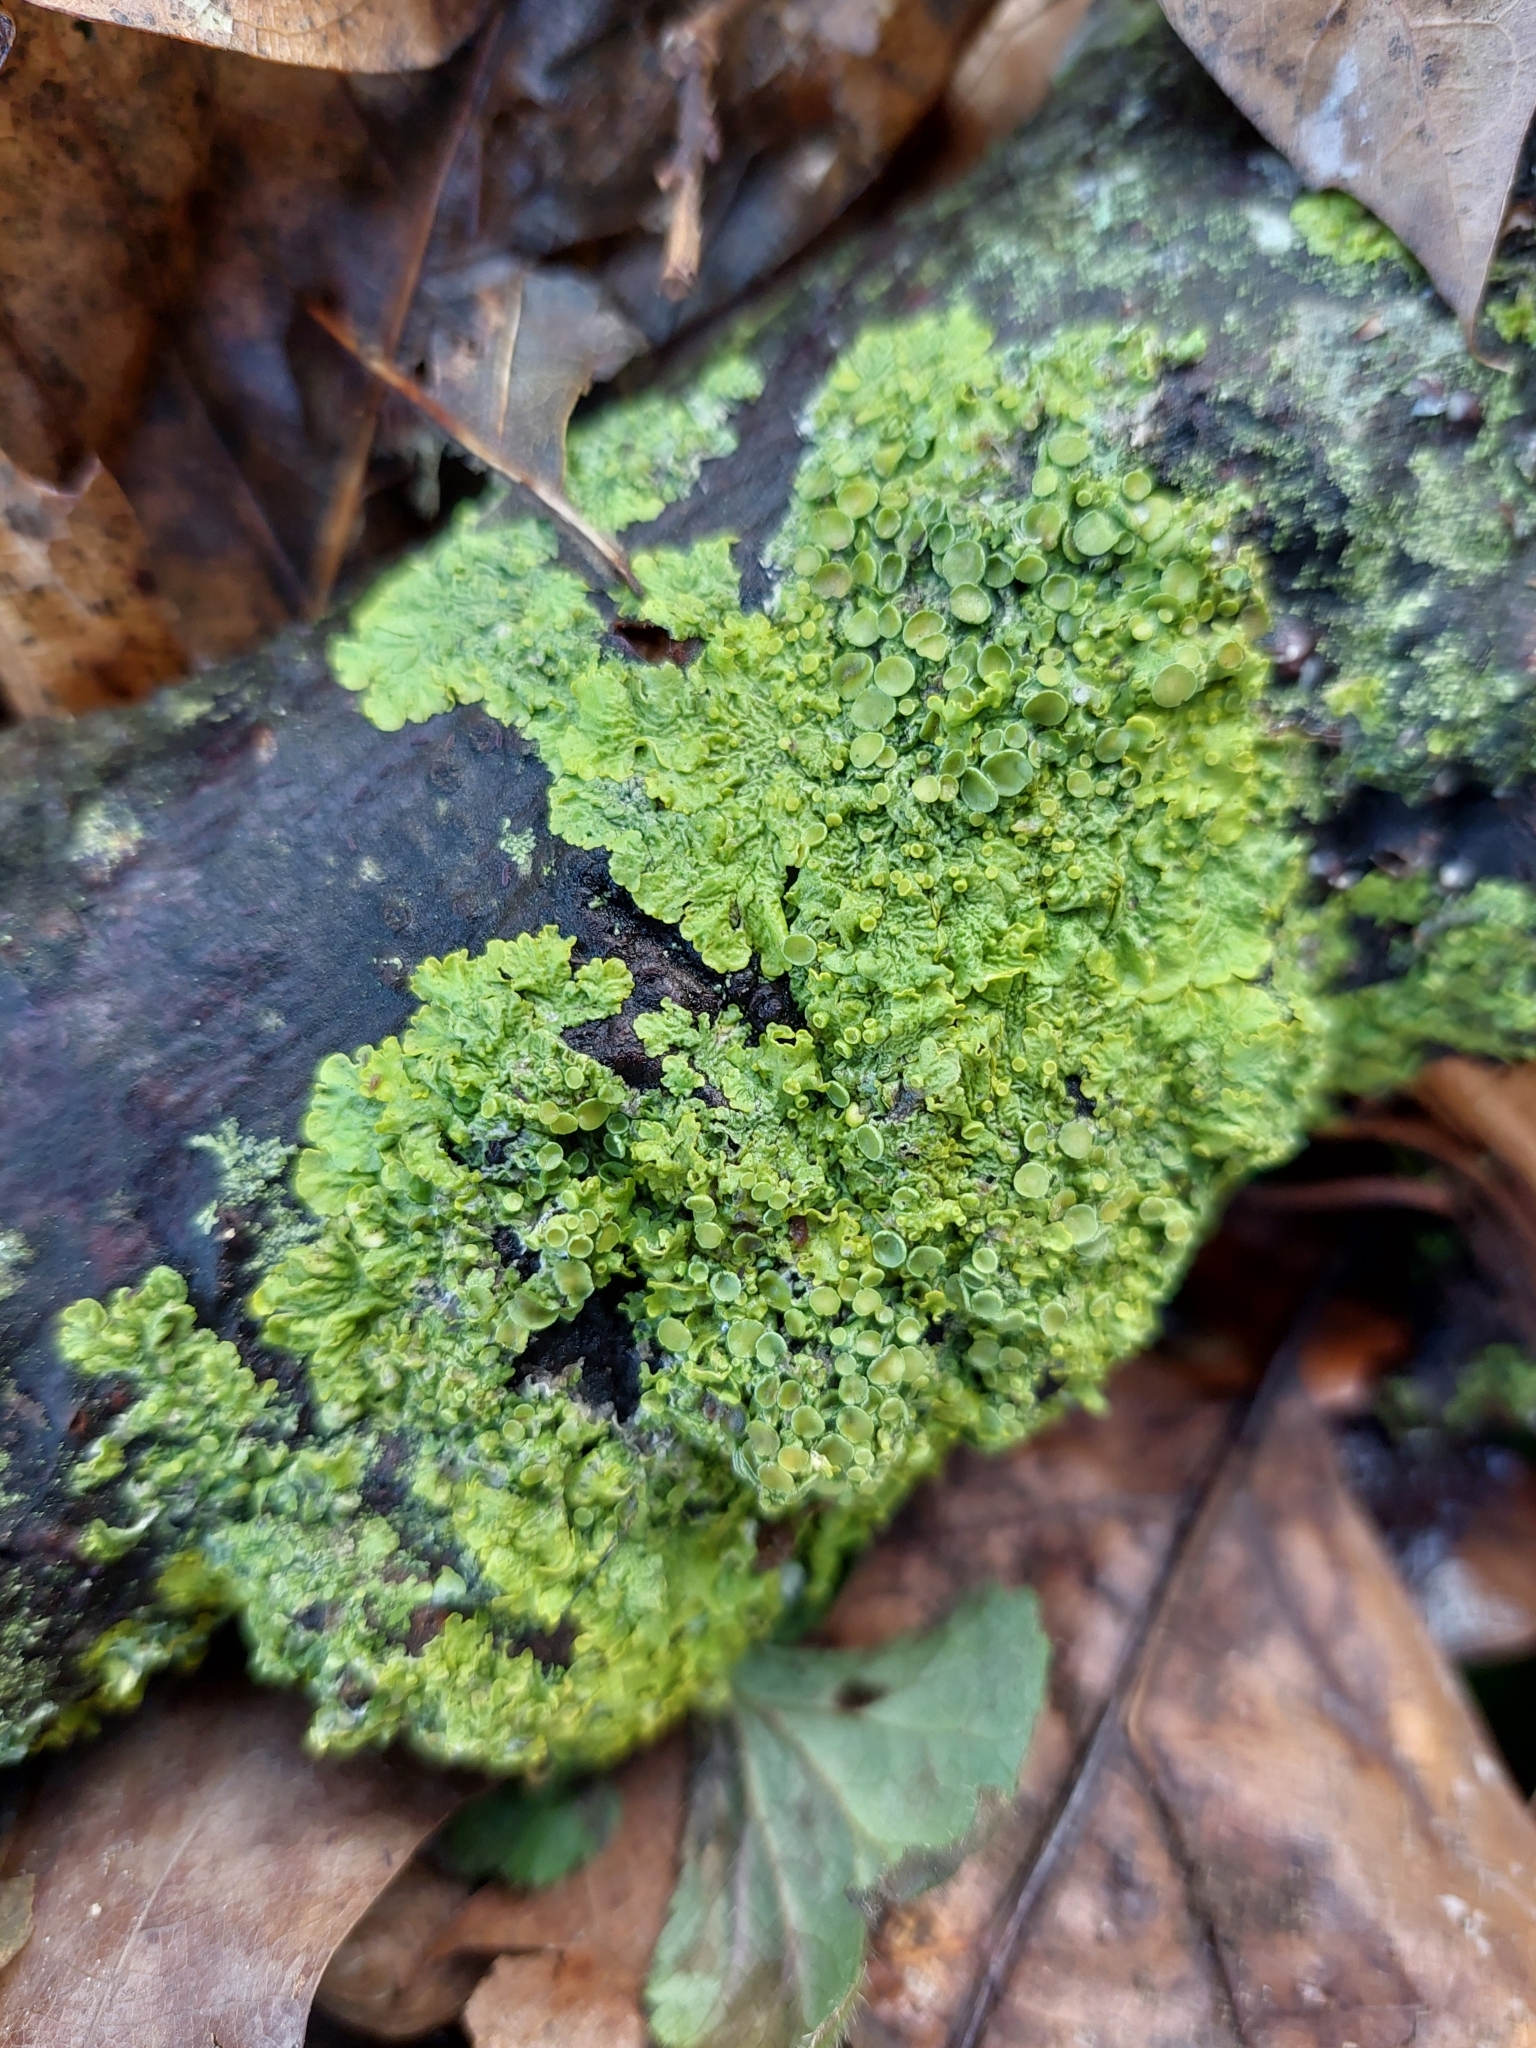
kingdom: Fungi
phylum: Ascomycota
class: Lecanoromycetes
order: Teloschistales
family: Teloschistaceae
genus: Xanthoria
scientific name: Xanthoria parietina
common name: Common orange lichen
